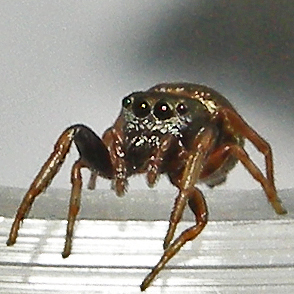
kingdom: Animalia
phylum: Arthropoda
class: Arachnida
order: Araneae
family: Salticidae
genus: Zygoballus
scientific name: Zygoballus sexpunctatus
